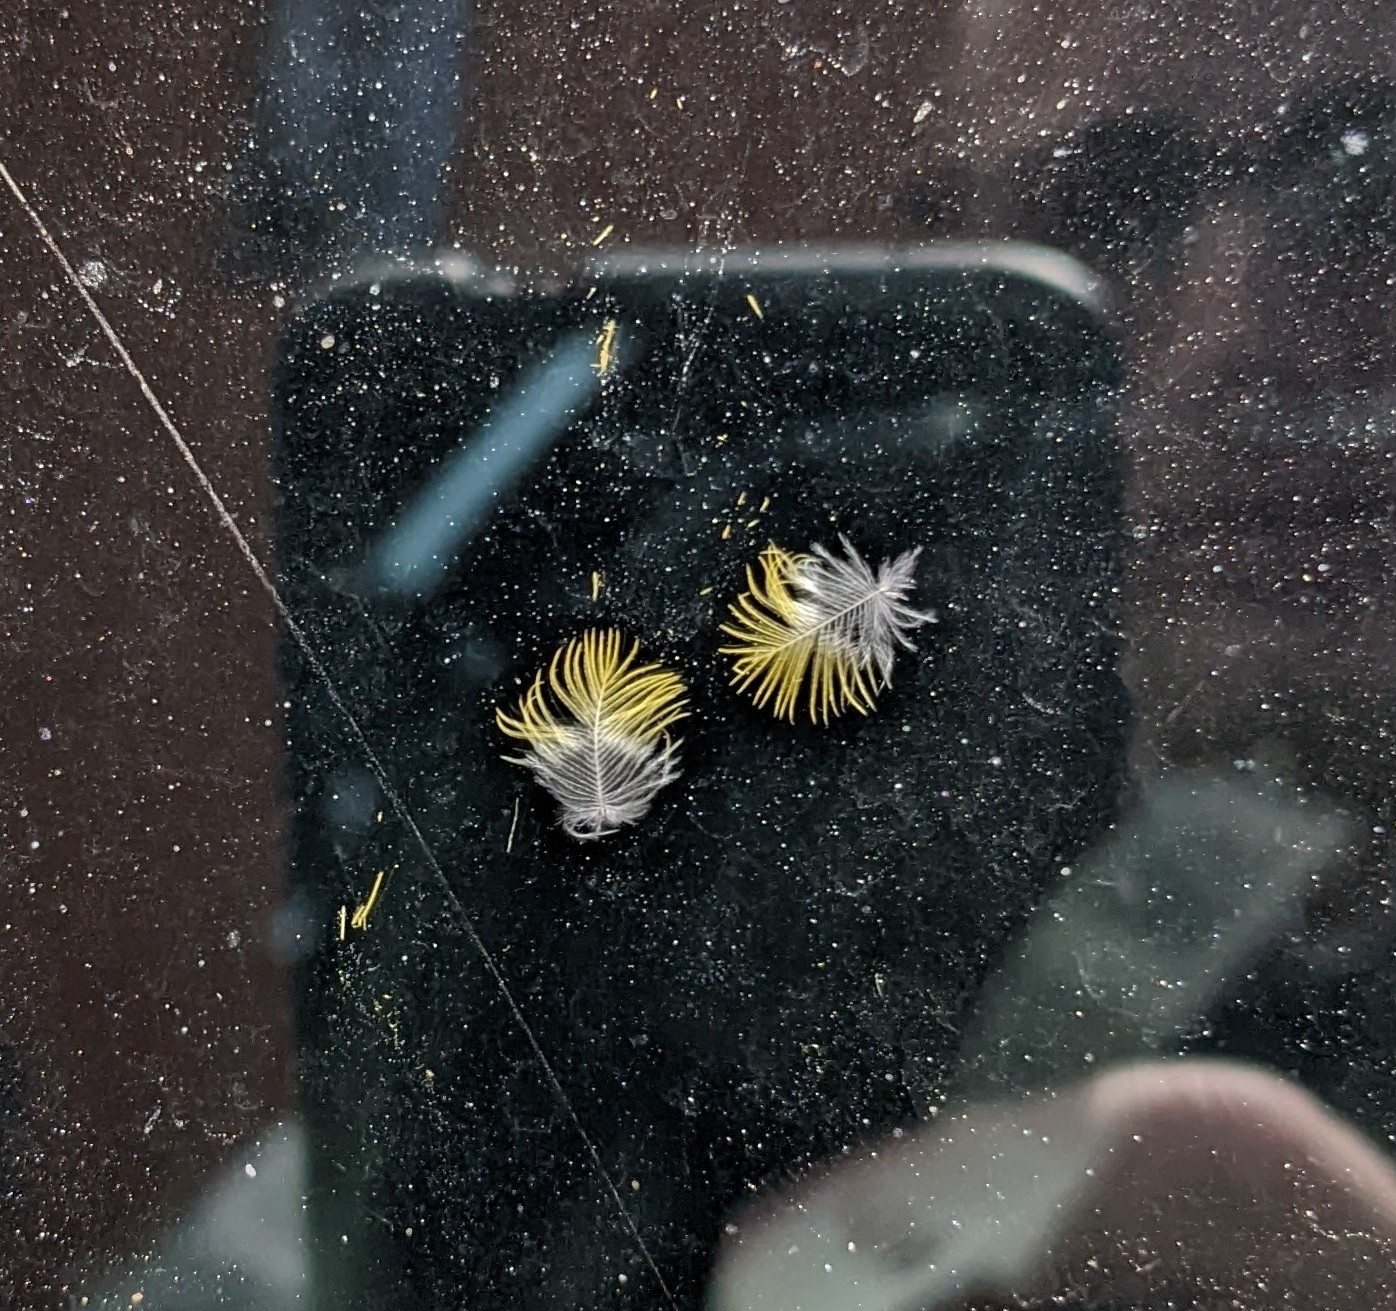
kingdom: Animalia
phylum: Chordata
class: Aves
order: Passeriformes
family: Parulidae
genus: Setophaga
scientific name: Setophaga palmarum
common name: Palm warbler
